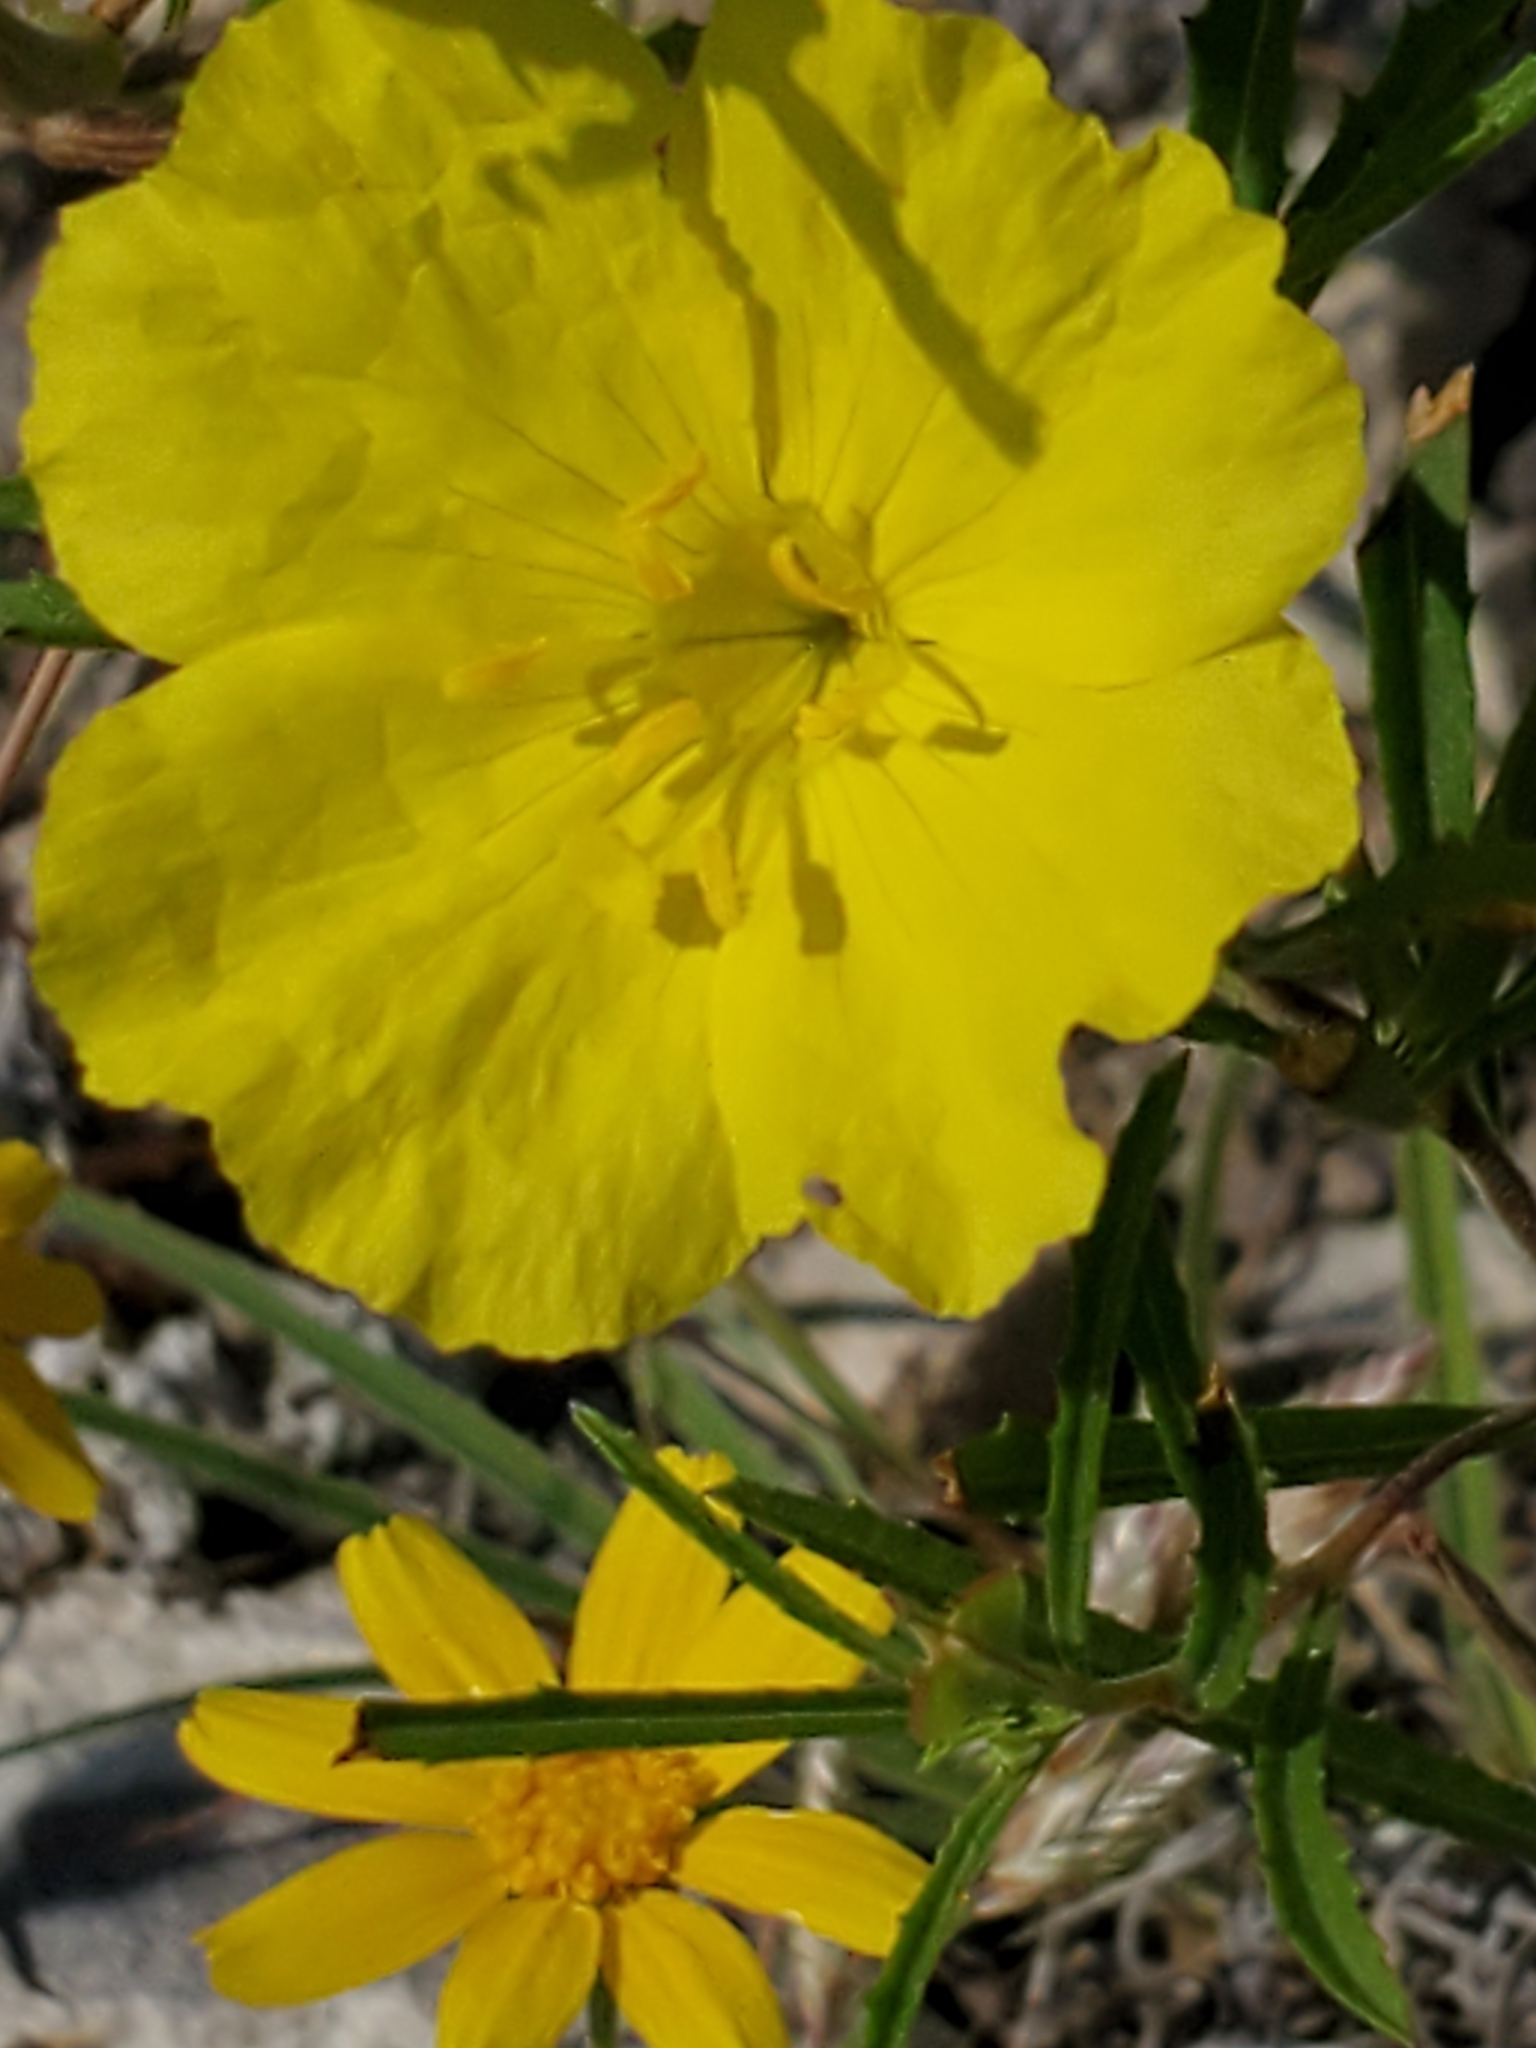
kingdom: Plantae
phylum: Tracheophyta
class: Magnoliopsida
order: Myrtales
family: Onagraceae
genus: Oenothera
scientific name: Oenothera
